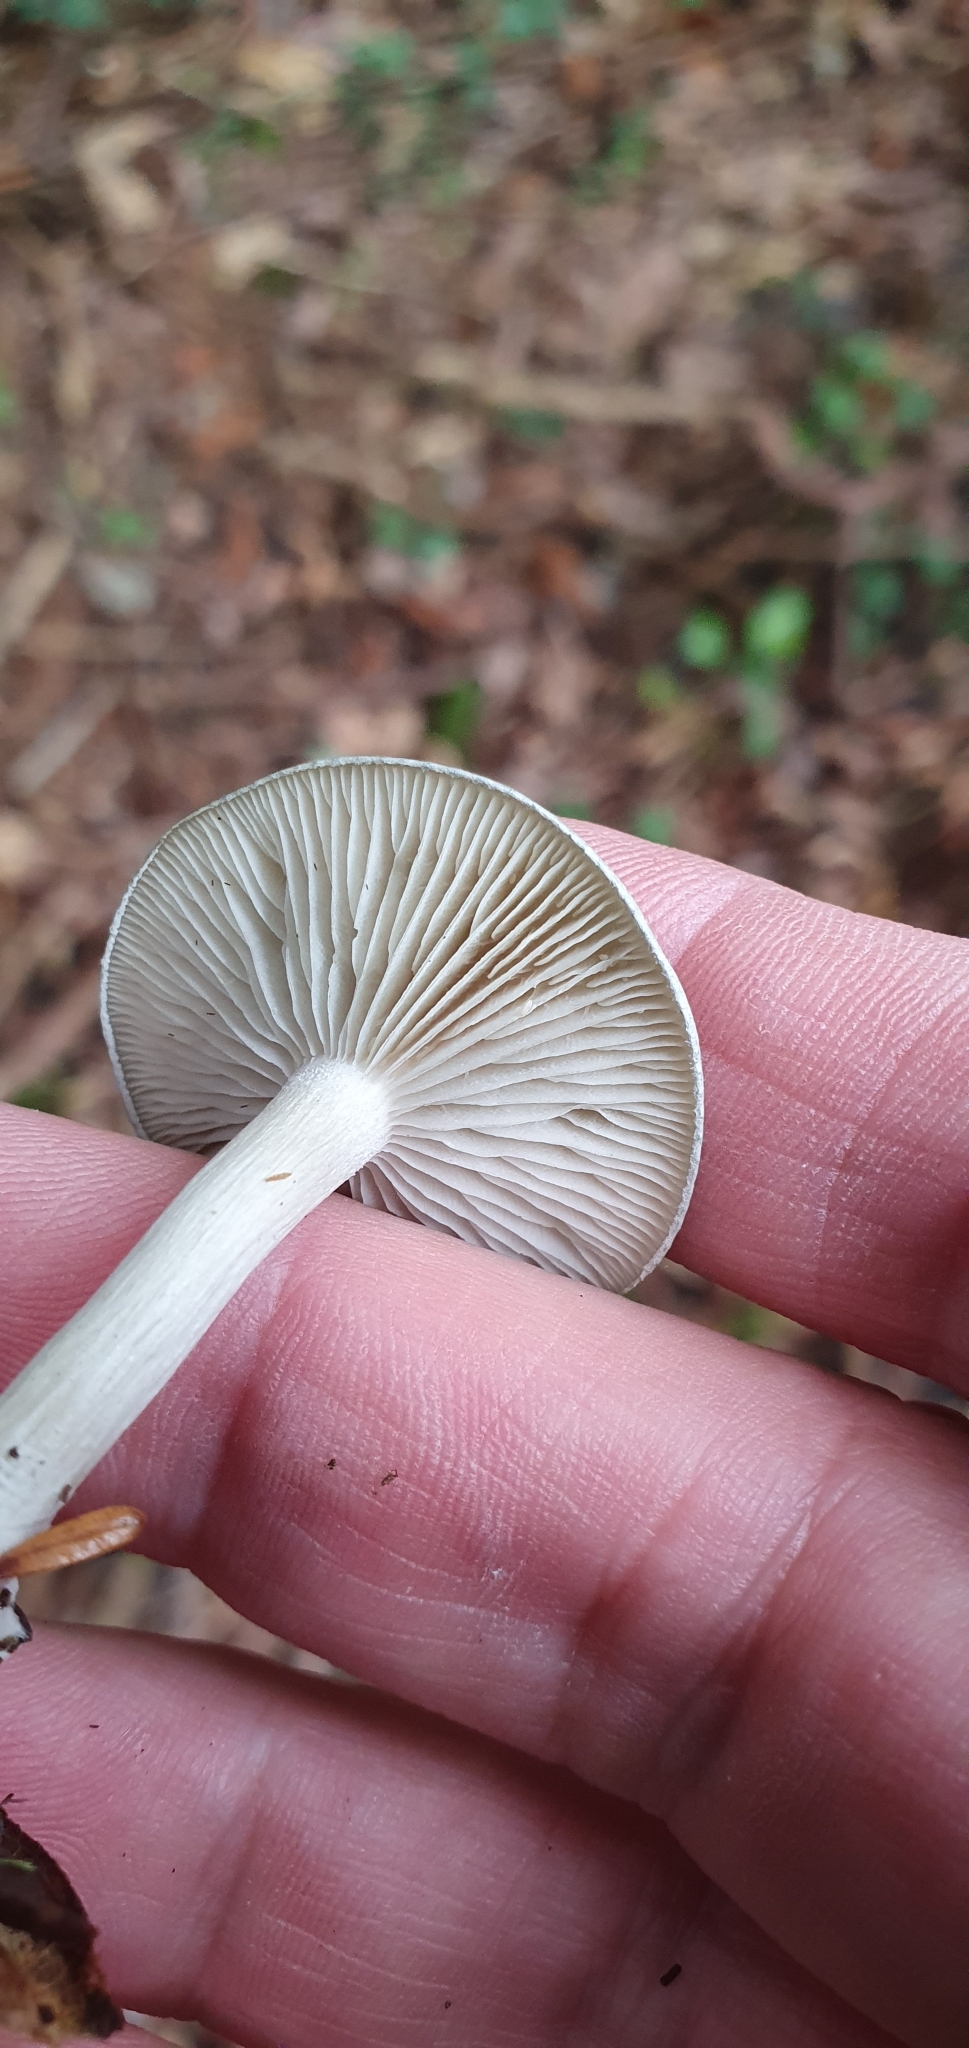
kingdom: Fungi
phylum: Basidiomycota
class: Agaricomycetes
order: Agaricales
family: Tricholomataceae
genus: Collybia
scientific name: Collybia
